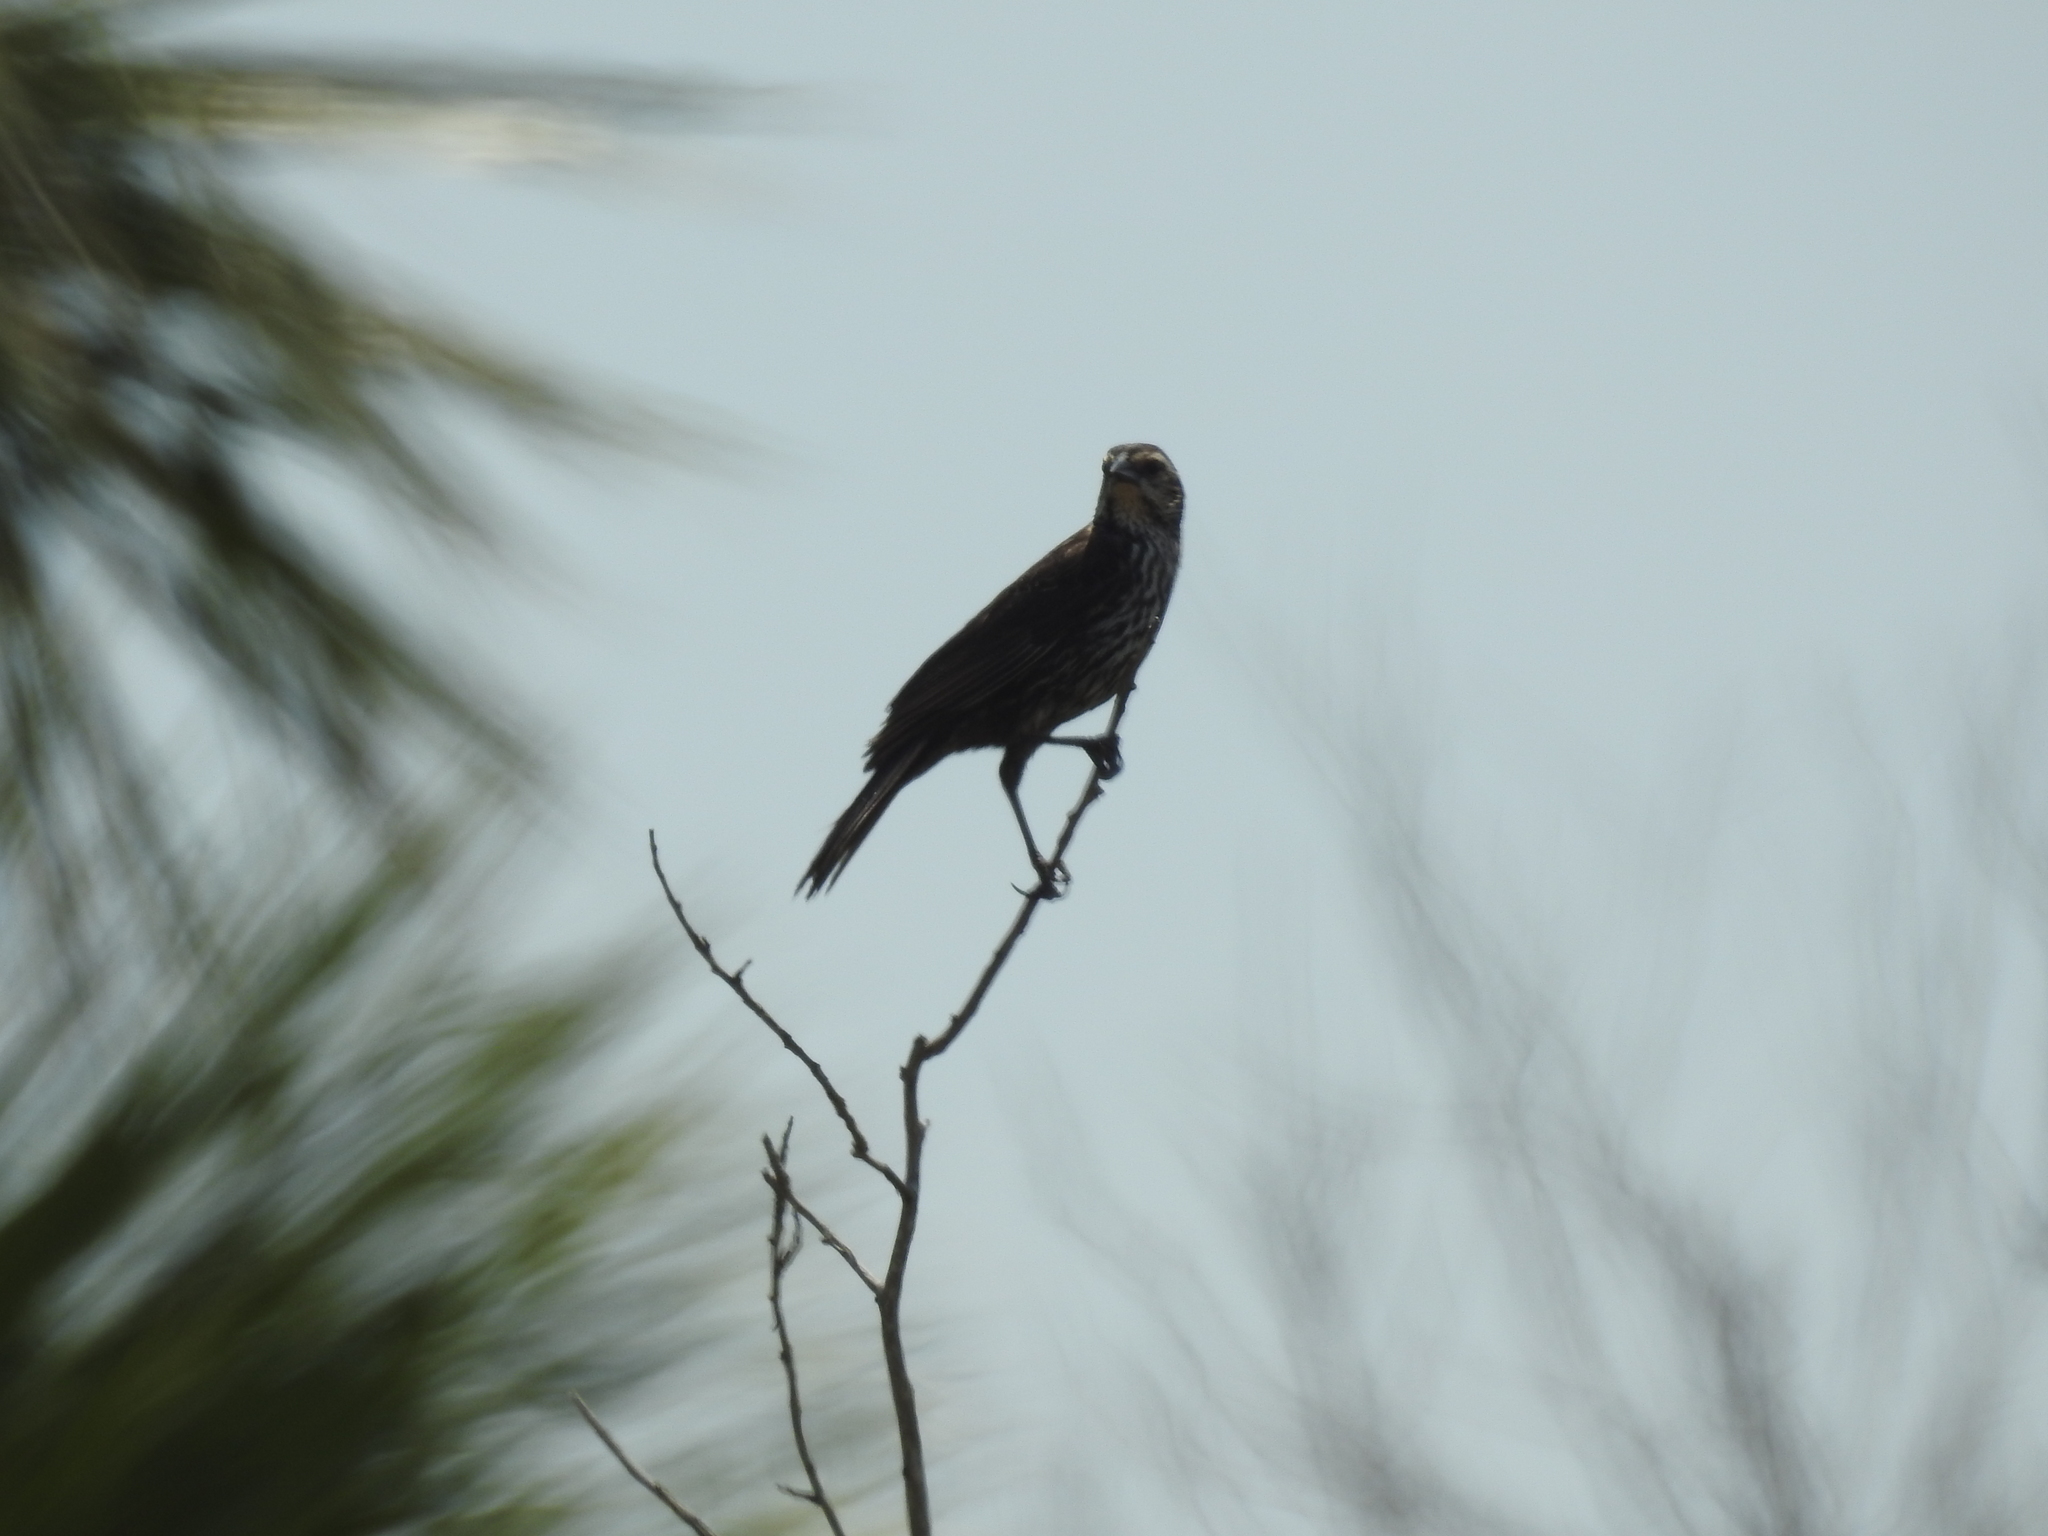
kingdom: Animalia
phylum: Chordata
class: Aves
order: Passeriformes
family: Icteridae
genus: Agelaius
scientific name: Agelaius phoeniceus
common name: Red-winged blackbird
